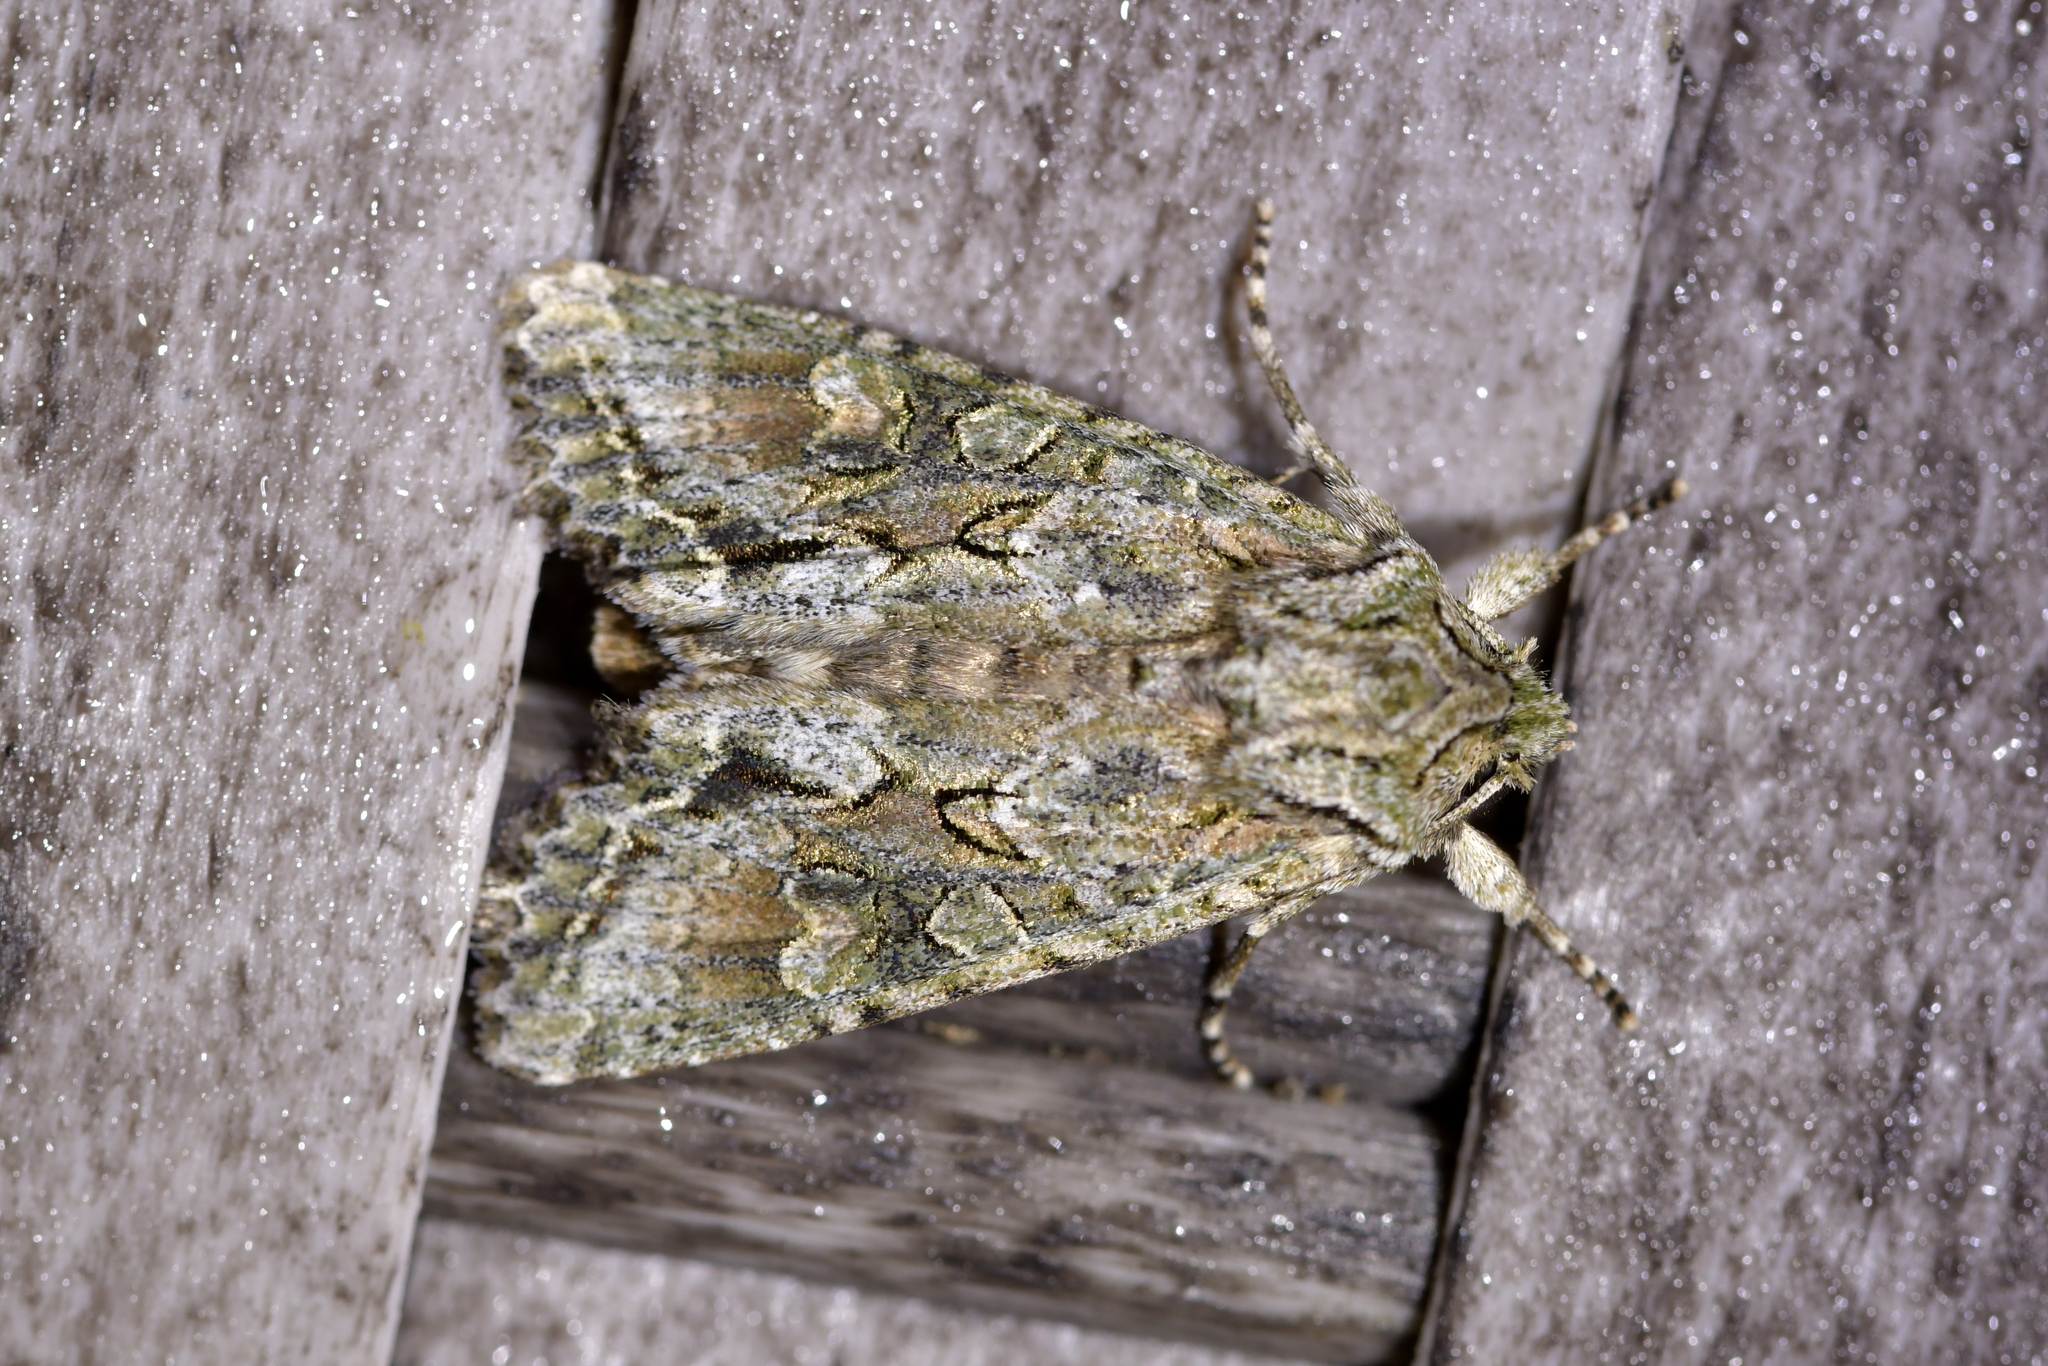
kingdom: Animalia
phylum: Arthropoda
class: Insecta
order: Lepidoptera
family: Noctuidae
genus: Ichneutica
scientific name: Ichneutica mutans
